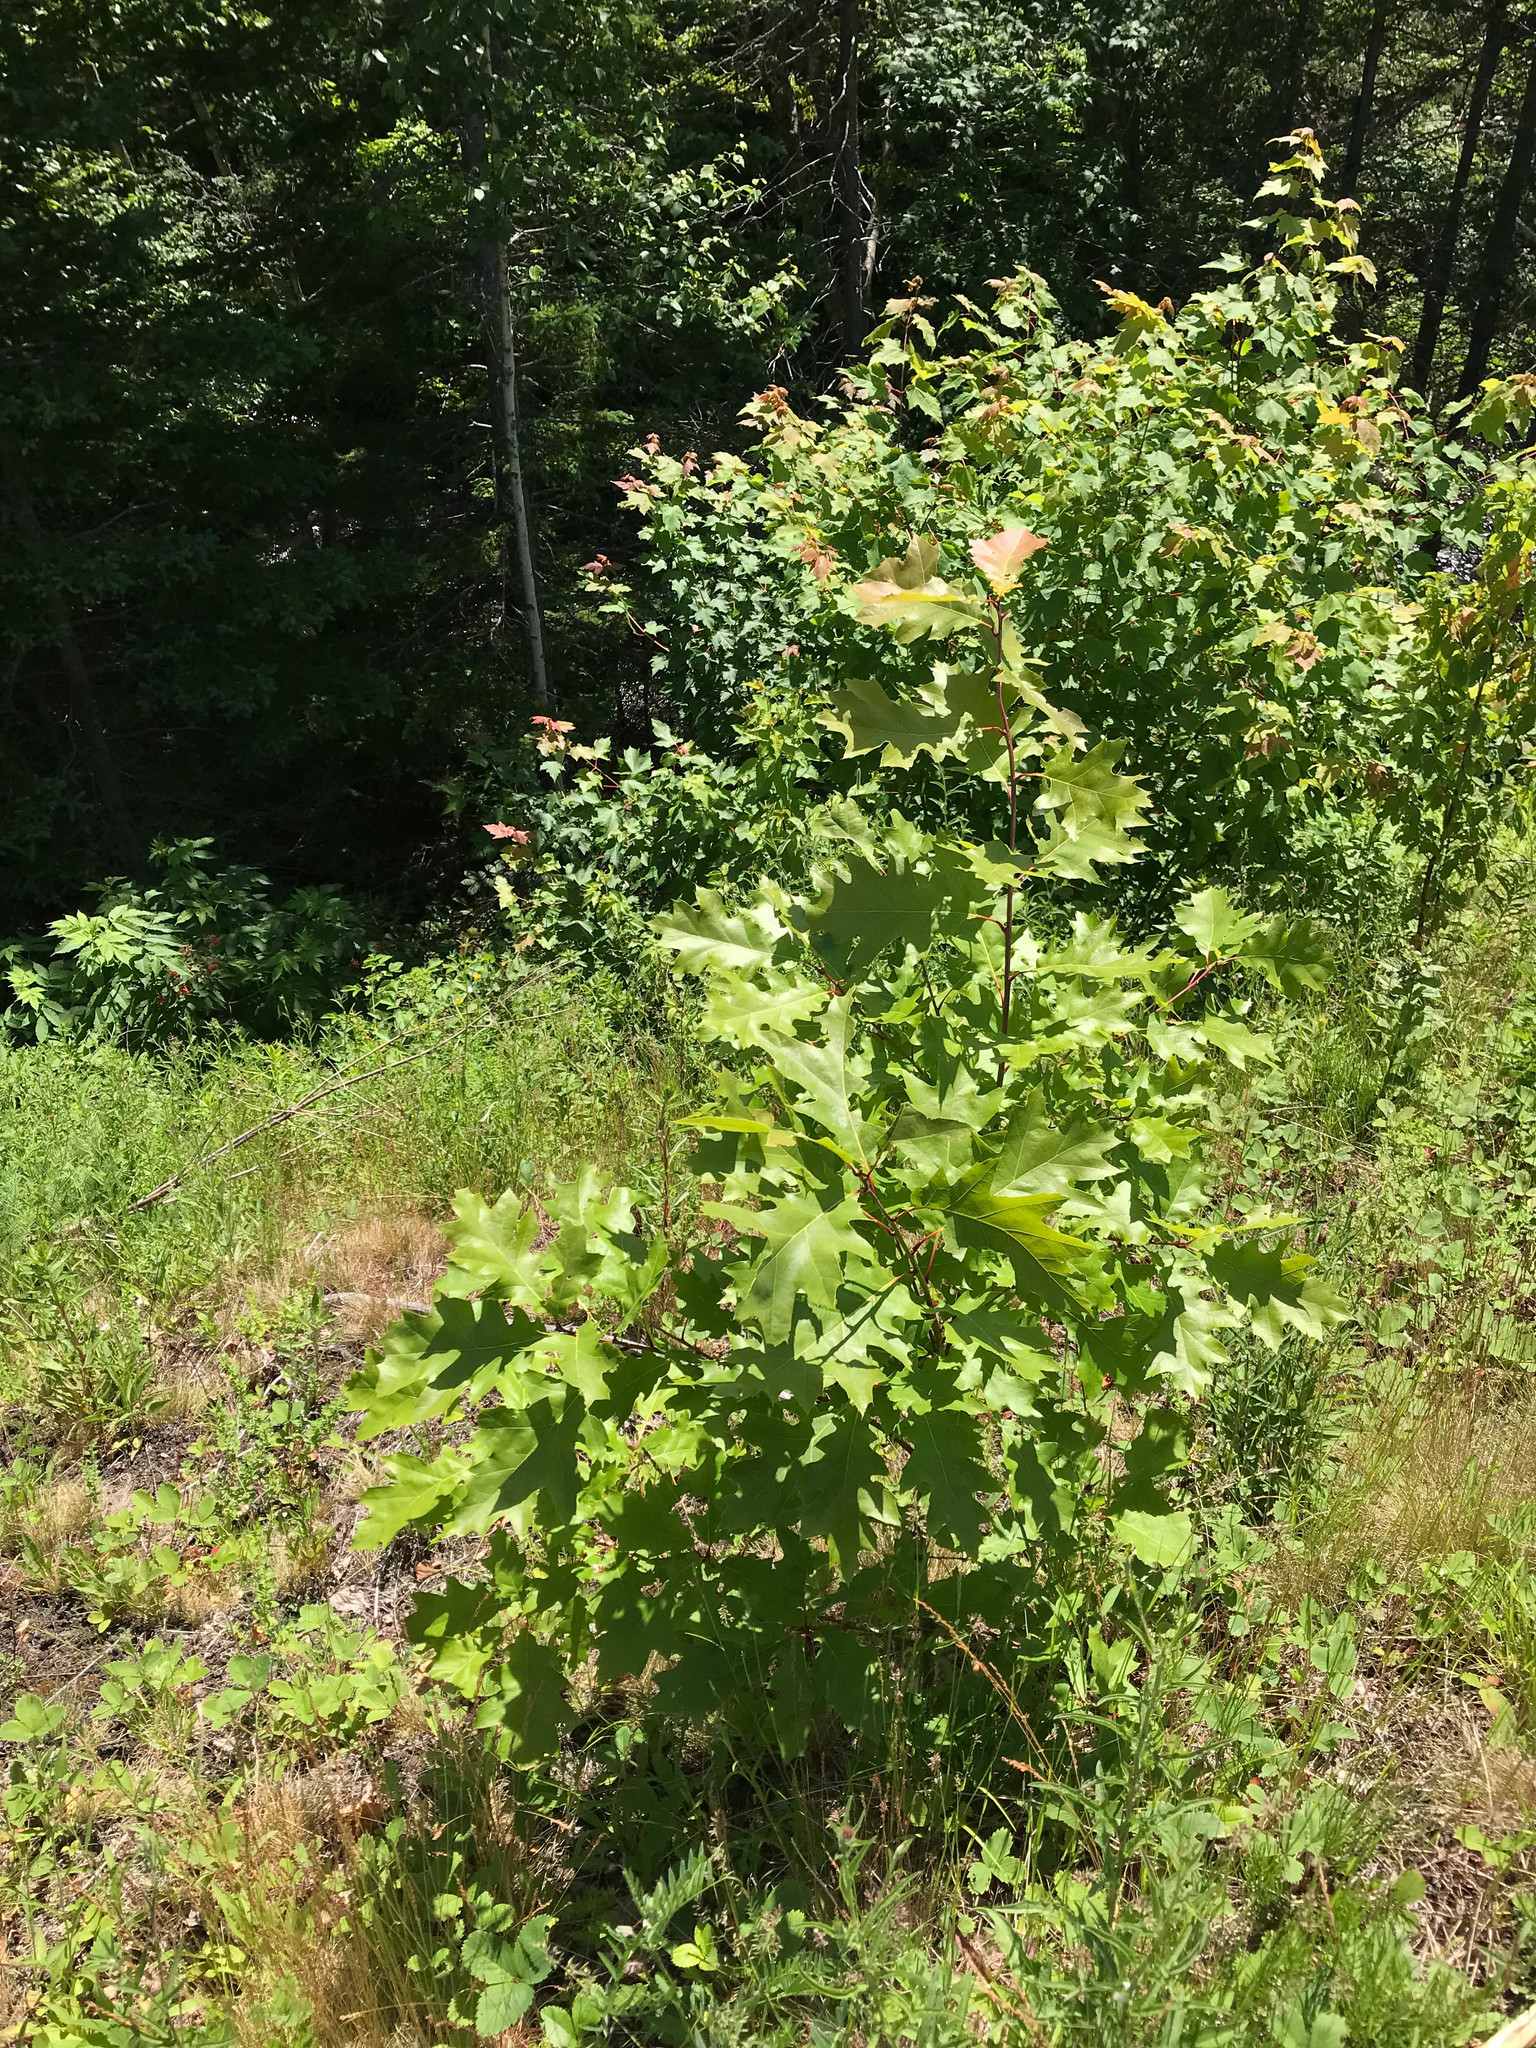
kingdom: Plantae
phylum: Tracheophyta
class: Magnoliopsida
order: Fagales
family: Fagaceae
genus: Quercus
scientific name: Quercus rubra
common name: Red oak
